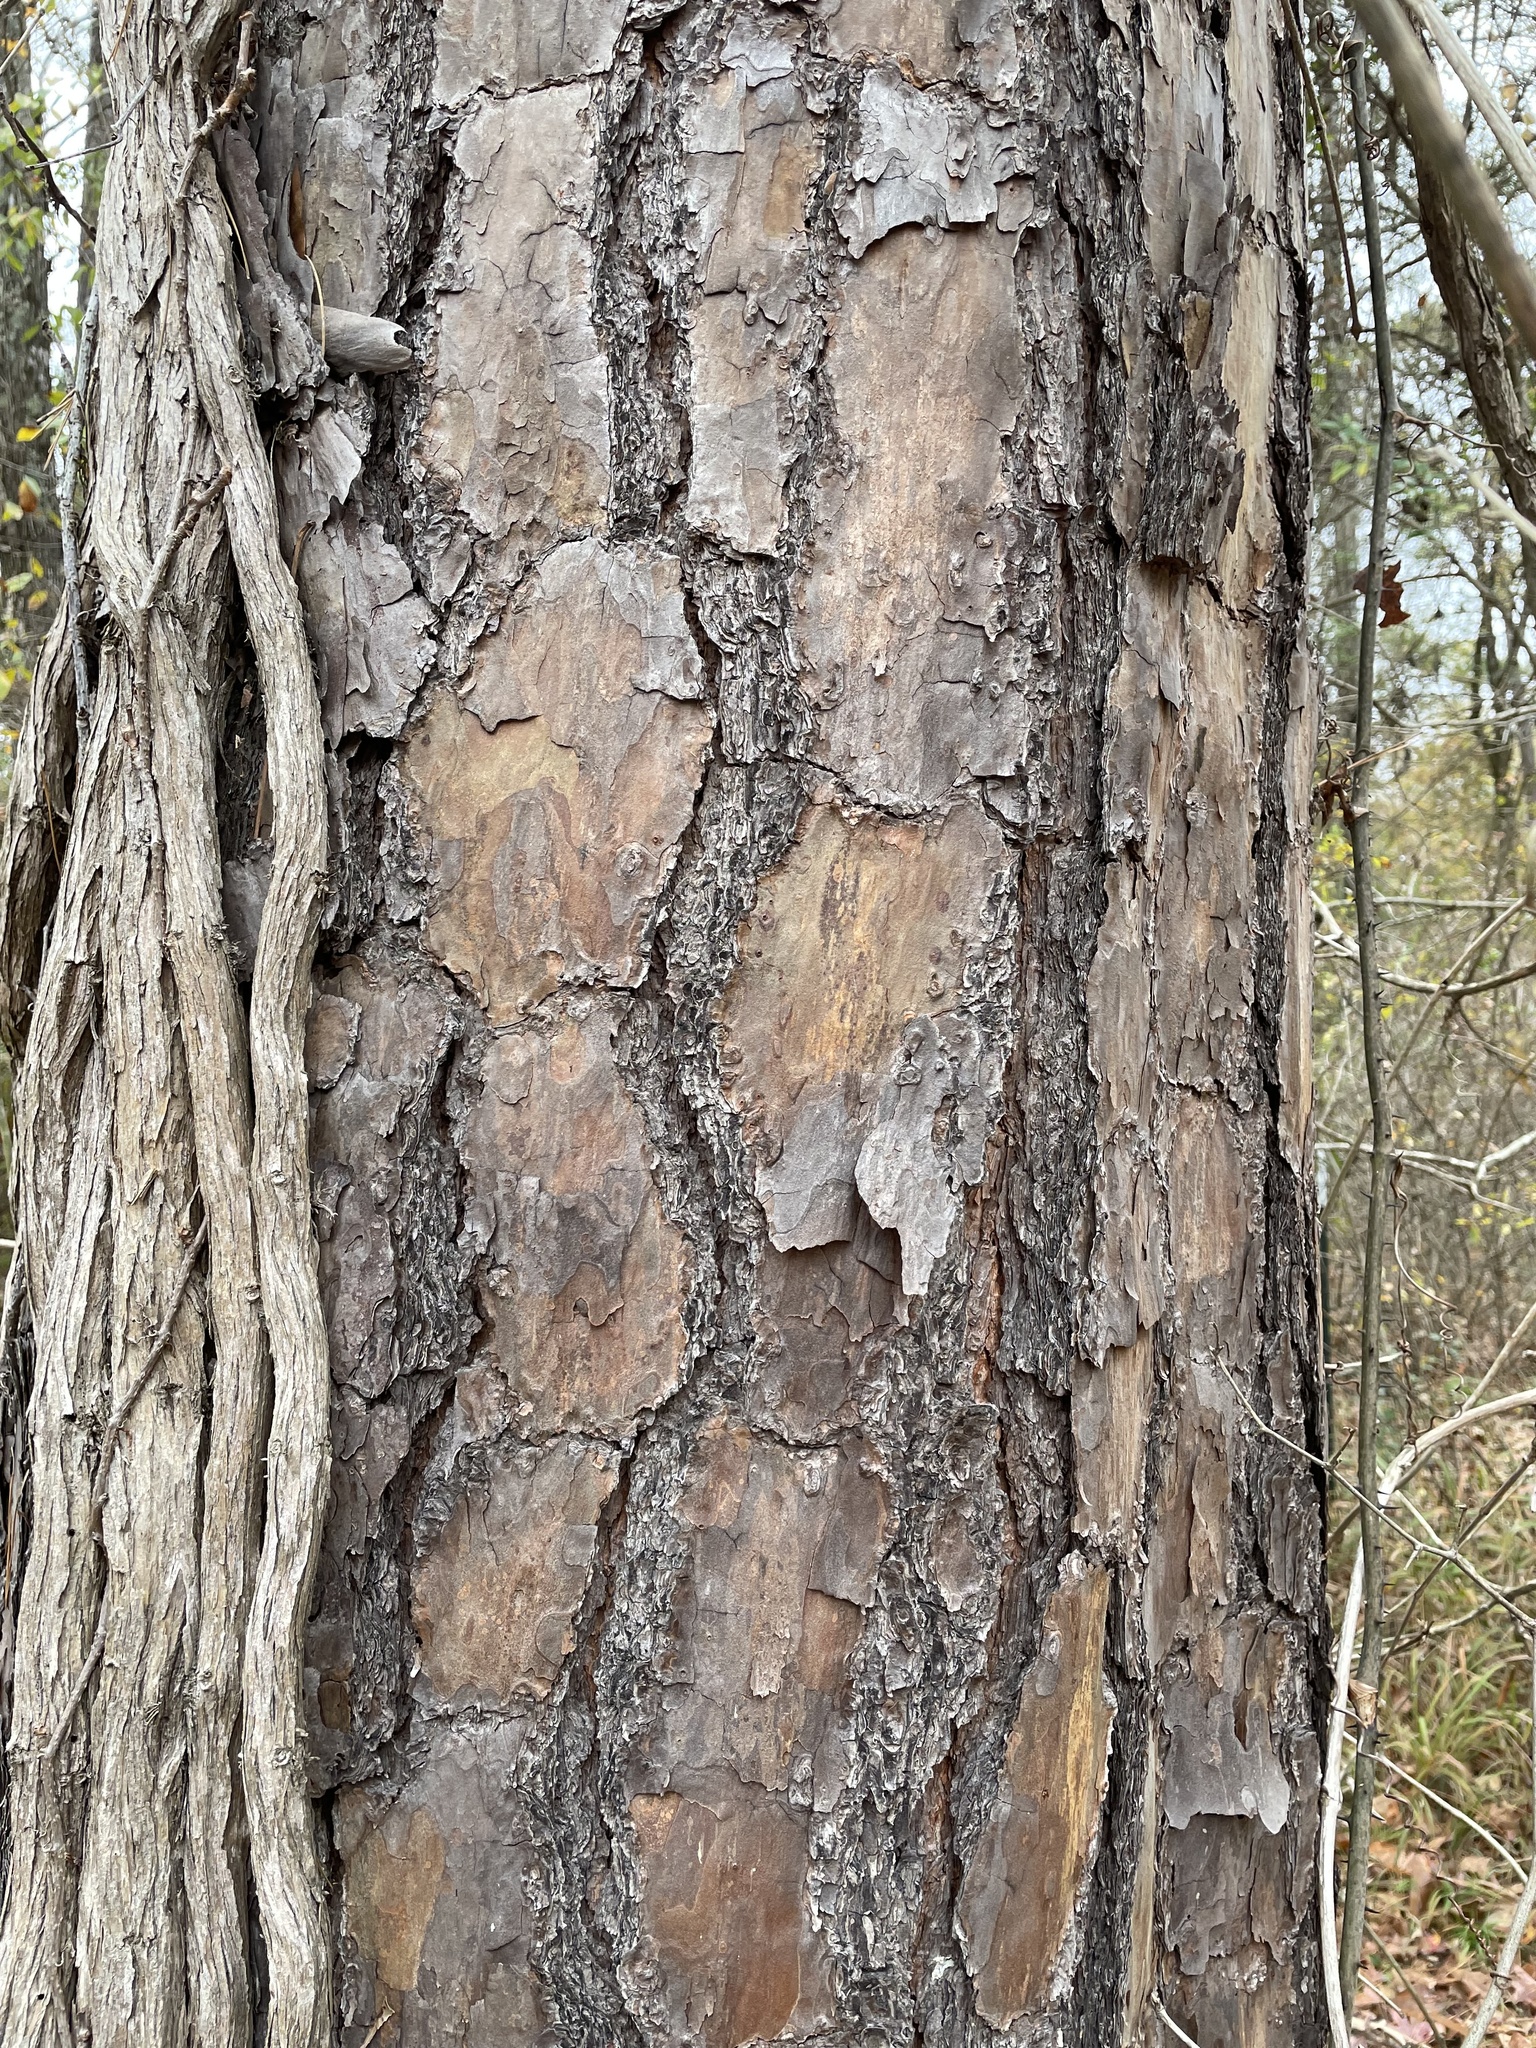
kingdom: Plantae
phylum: Tracheophyta
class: Pinopsida
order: Pinales
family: Pinaceae
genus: Pinus
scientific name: Pinus echinata
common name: Shortleaf pine
